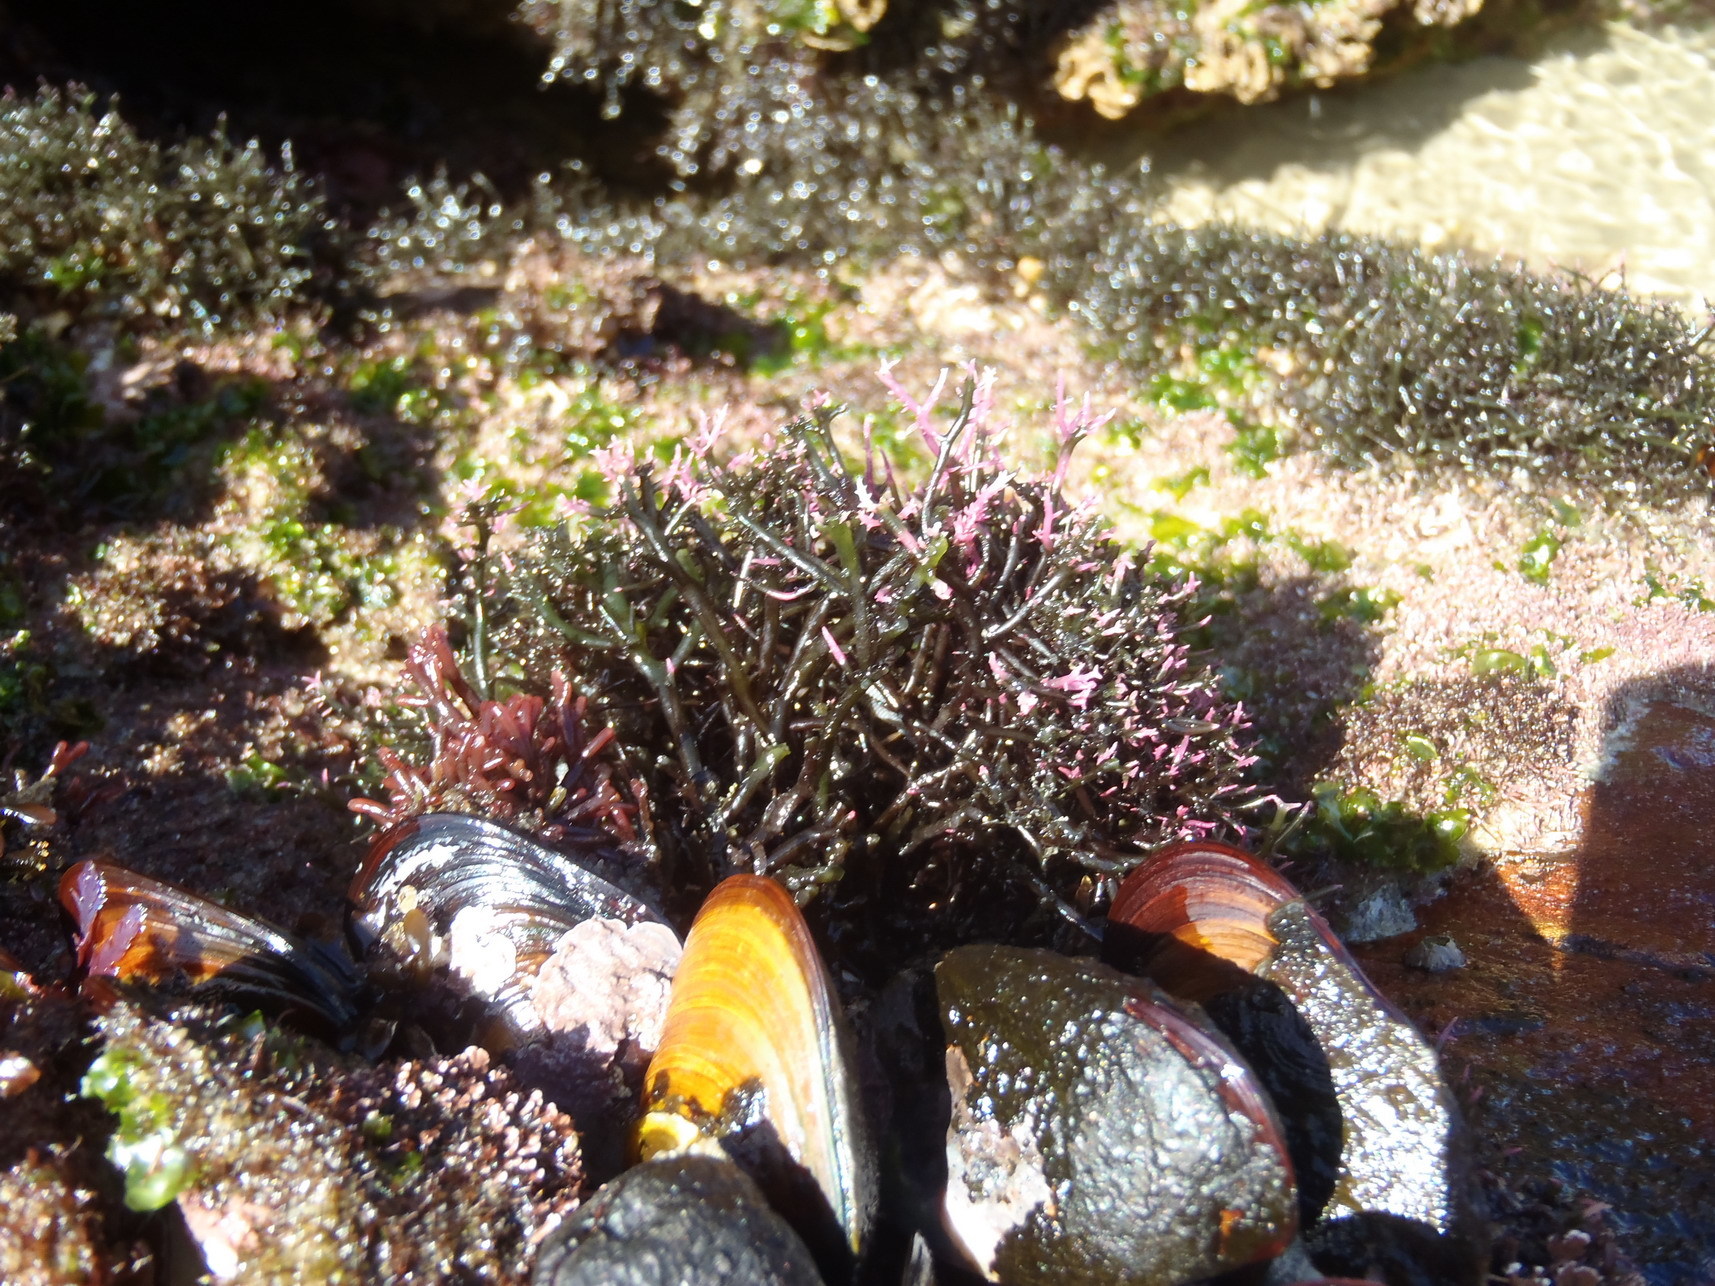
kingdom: Plantae
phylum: Rhodophyta
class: Florideophyceae
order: Gigartinales
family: Cystocloniaceae
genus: Hypnea
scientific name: Hypnea spicifera
